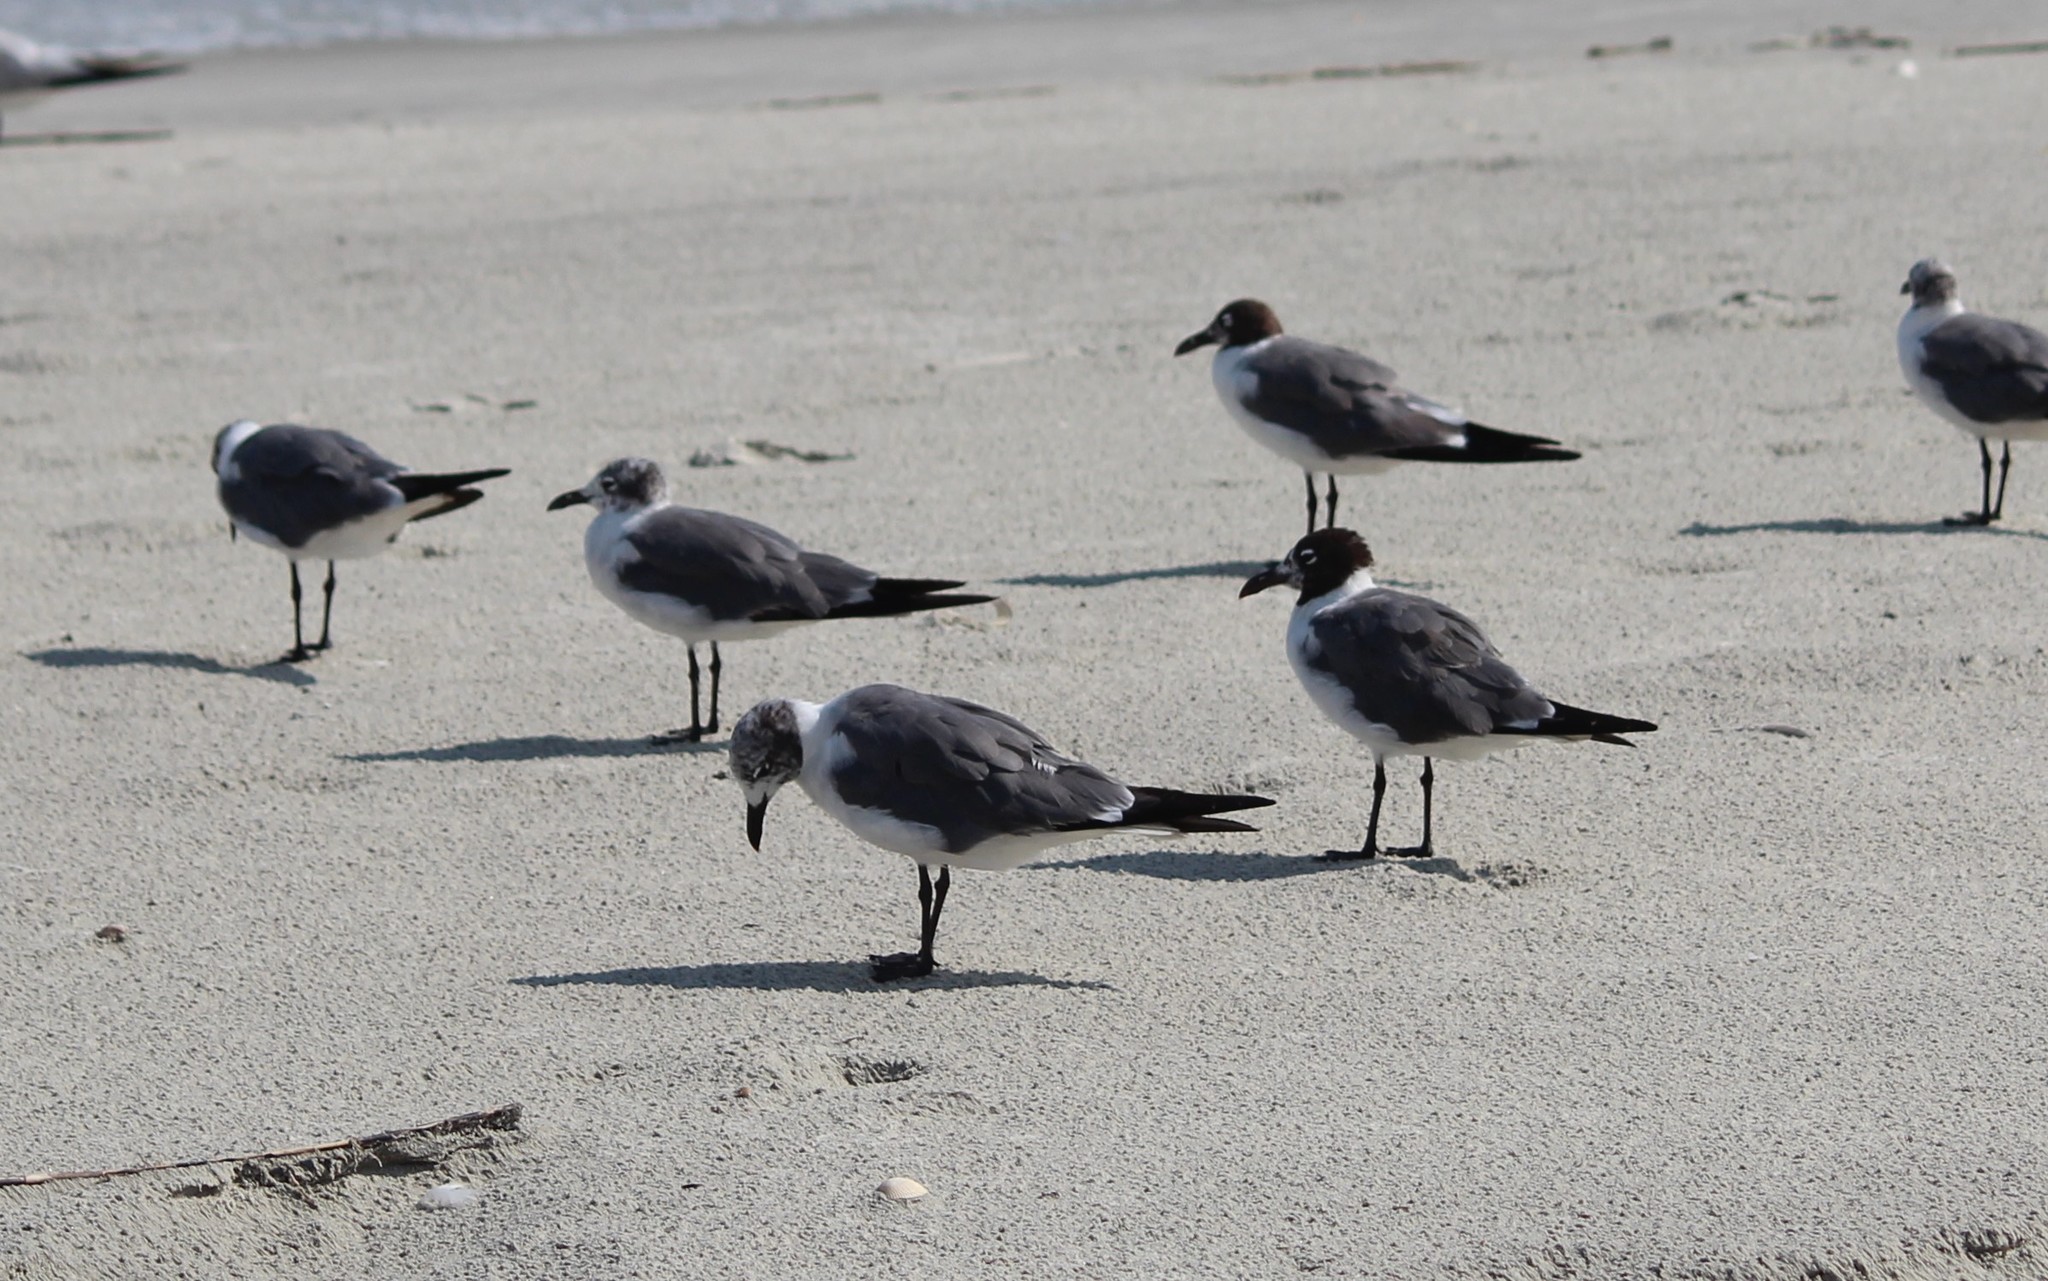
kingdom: Animalia
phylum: Chordata
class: Aves
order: Charadriiformes
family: Laridae
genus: Leucophaeus
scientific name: Leucophaeus atricilla
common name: Laughing gull
